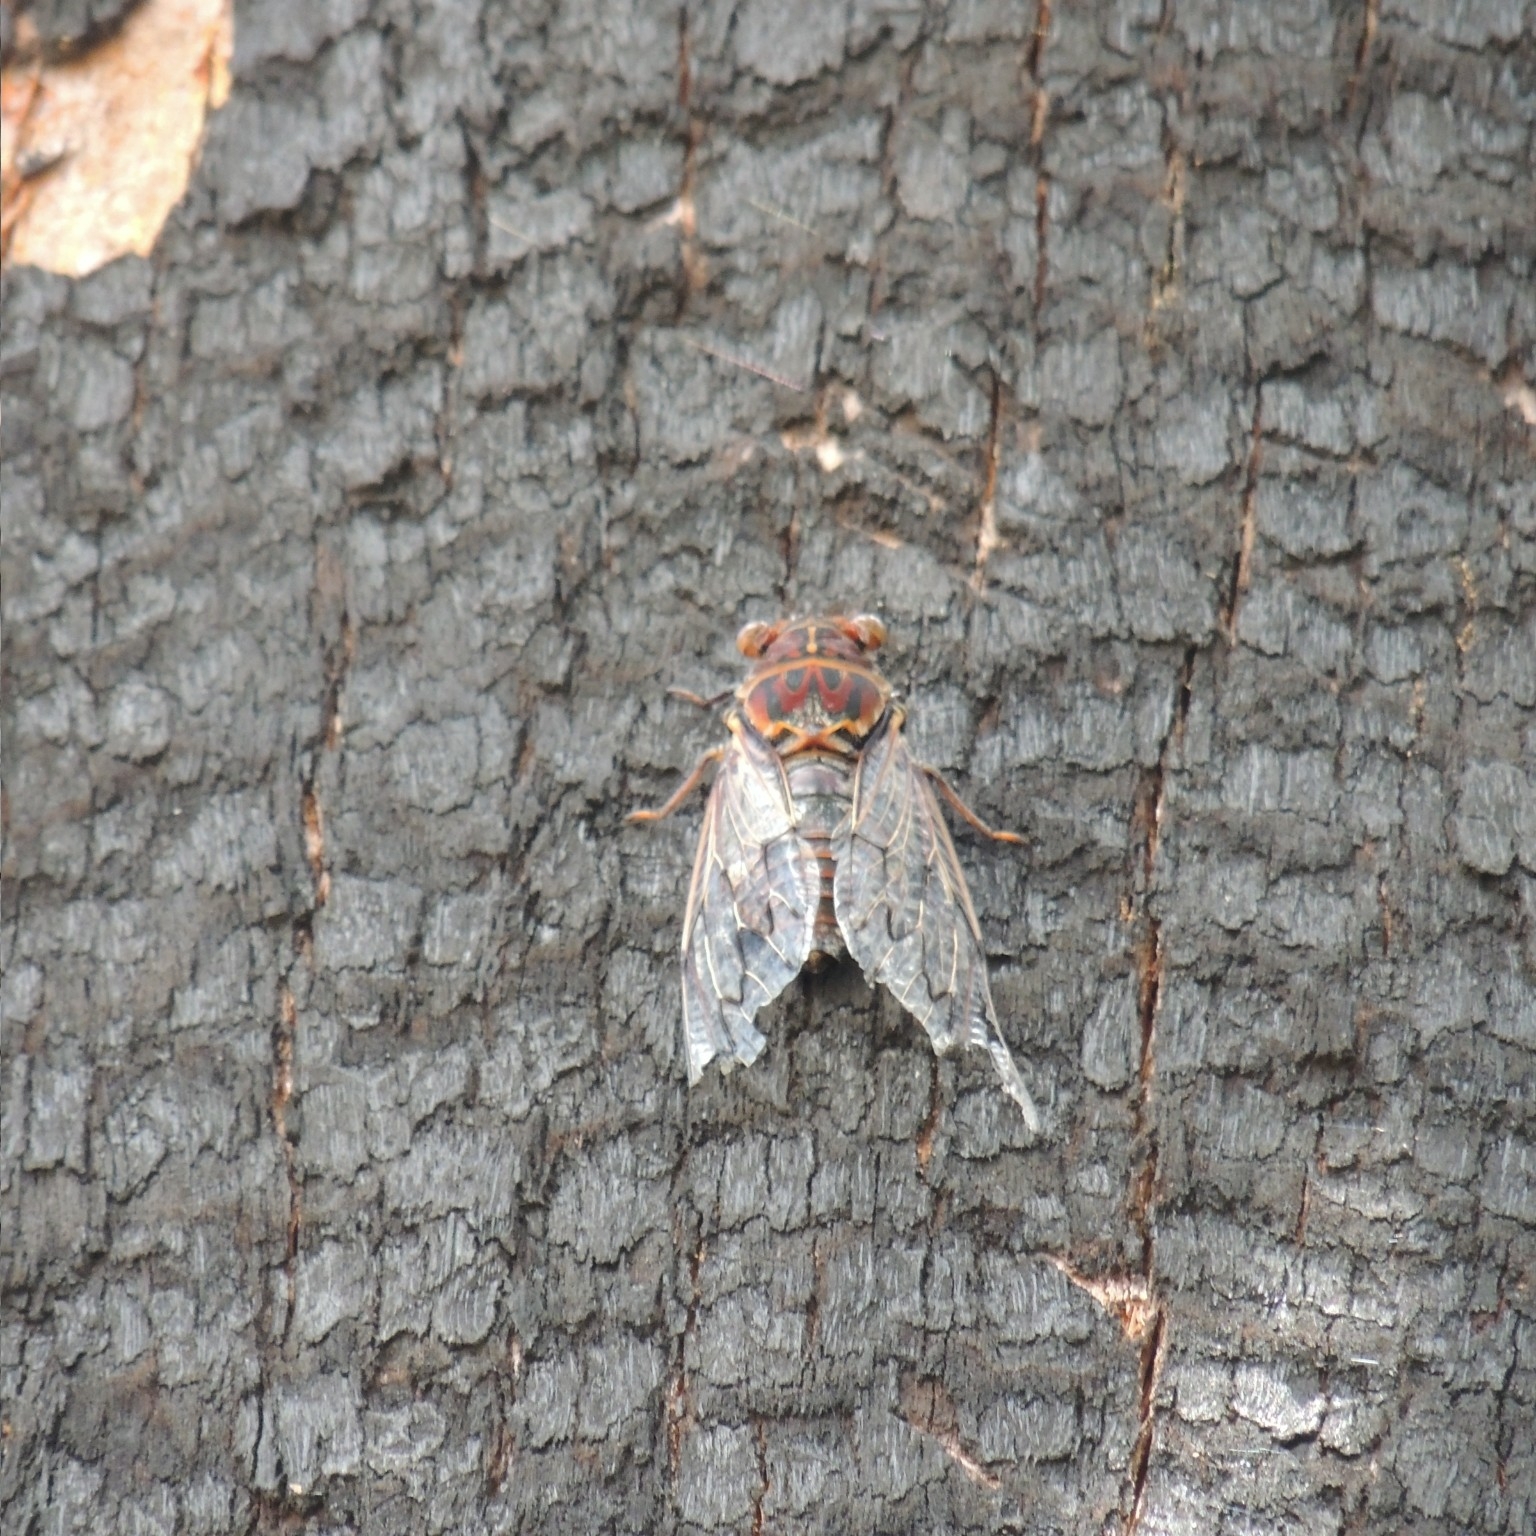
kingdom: Animalia
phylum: Arthropoda
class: Insecta
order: Hemiptera
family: Cicadidae
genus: Henicopsaltria
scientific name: Henicopsaltria eydouxii
